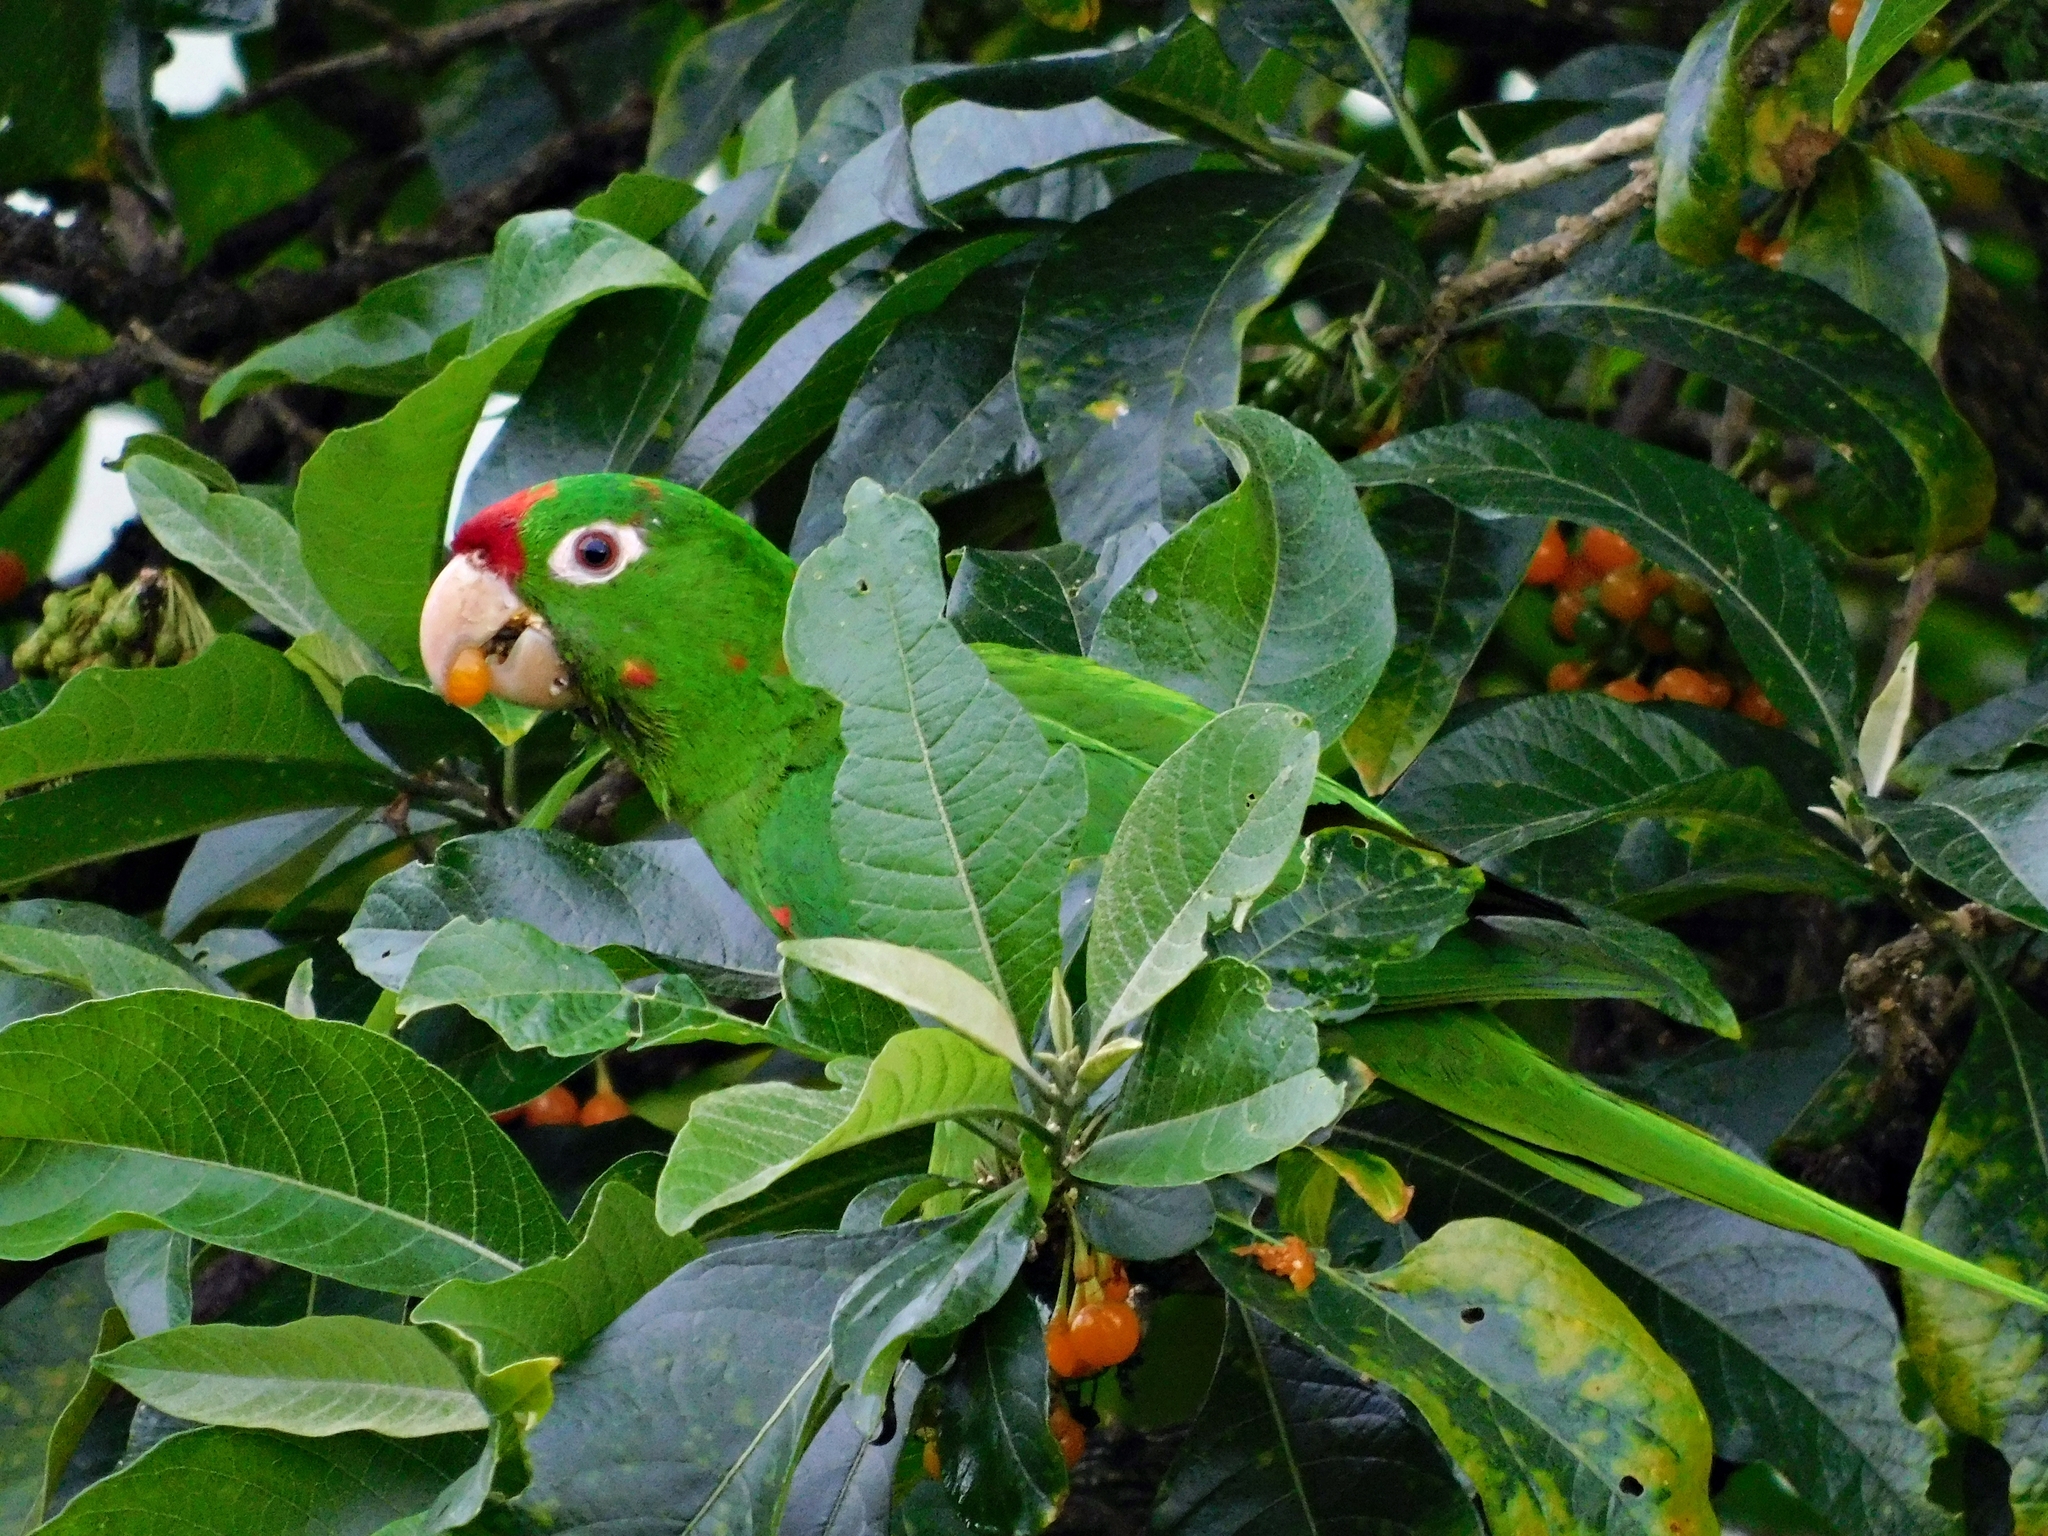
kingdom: Animalia
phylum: Chordata
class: Aves
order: Psittaciformes
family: Psittacidae
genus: Aratinga
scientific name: Aratinga finschi
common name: Crimson-fronted parakeet
